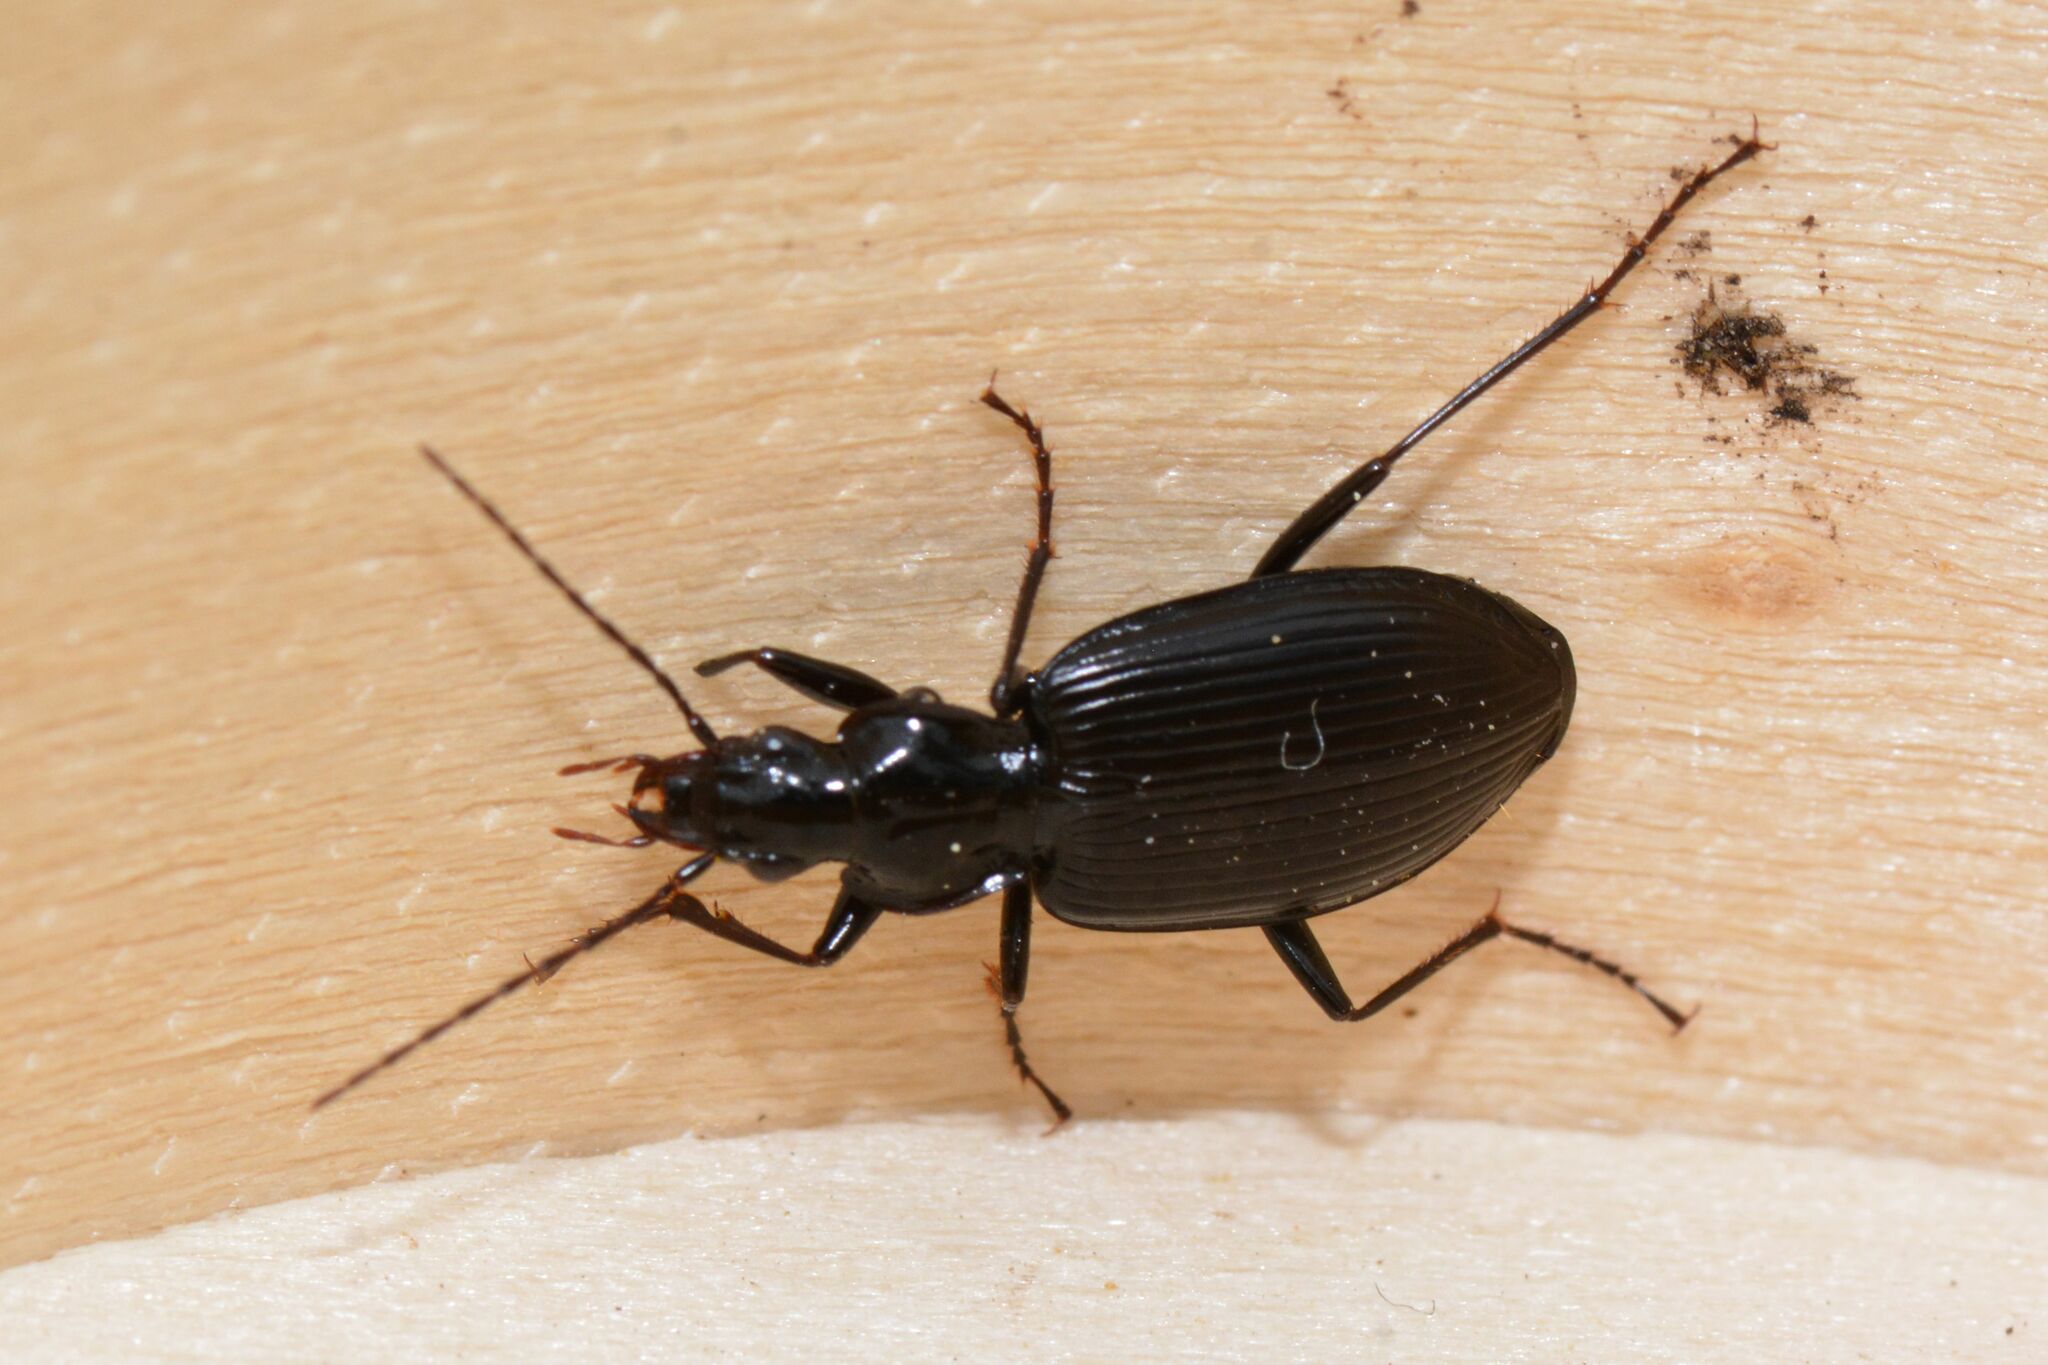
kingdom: Animalia
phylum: Arthropoda
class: Insecta
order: Coleoptera
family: Carabidae
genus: Platynus
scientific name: Platynus assimilis
